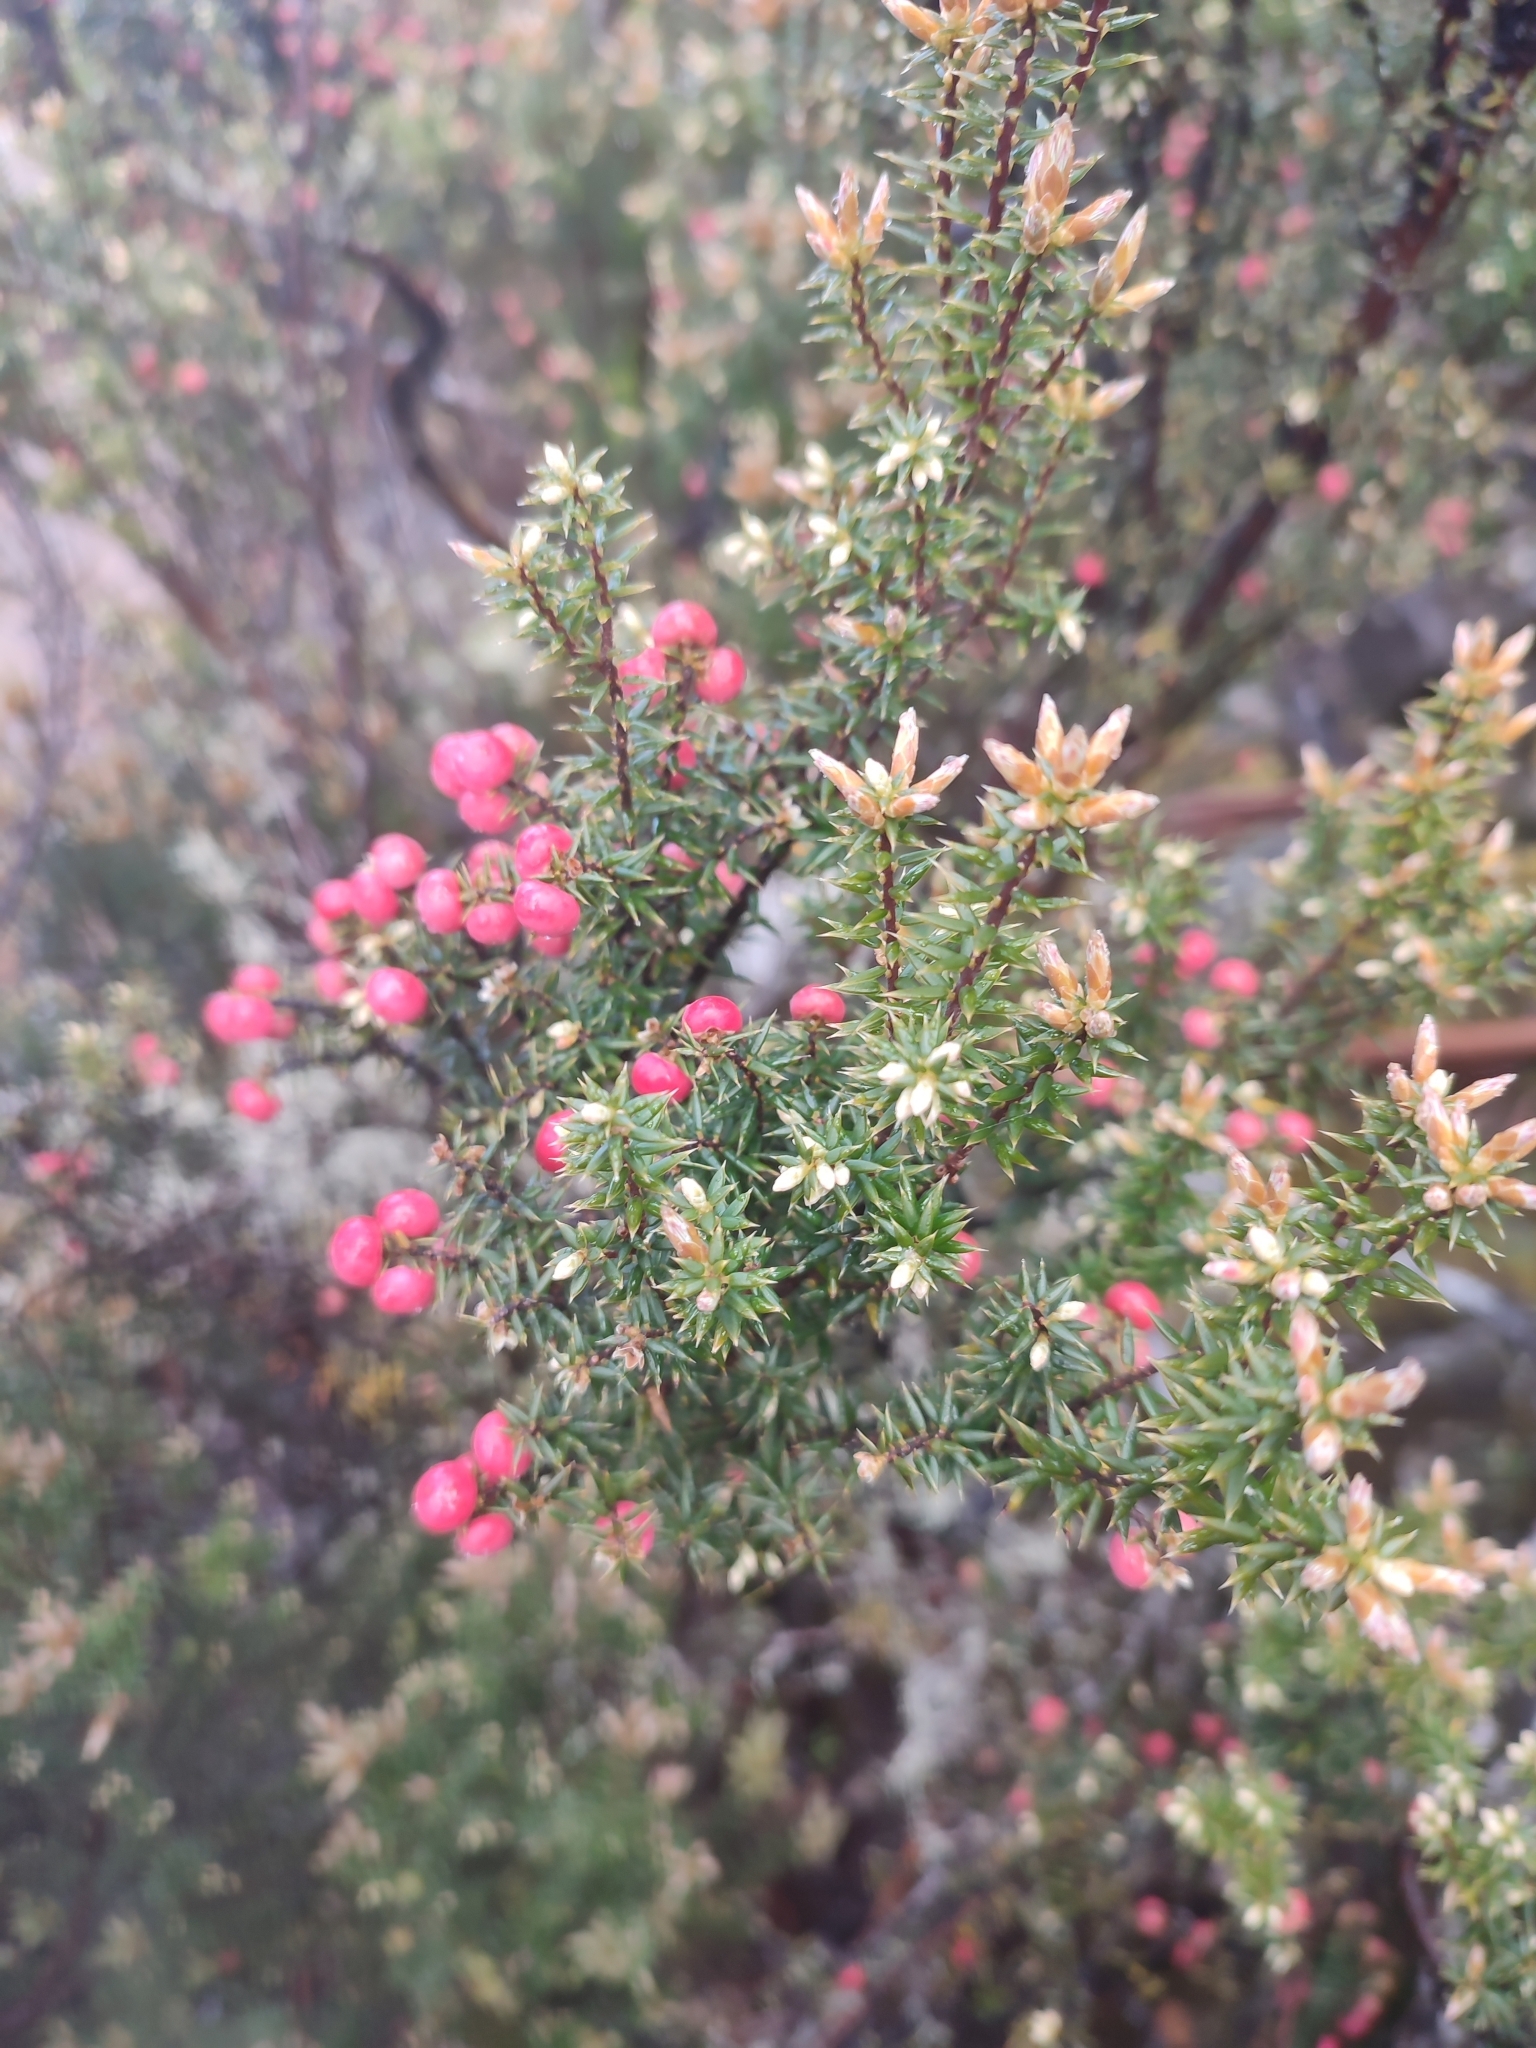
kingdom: Plantae
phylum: Tracheophyta
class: Magnoliopsida
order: Ericales
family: Ericaceae
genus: Leptecophylla
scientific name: Leptecophylla parvifolia
